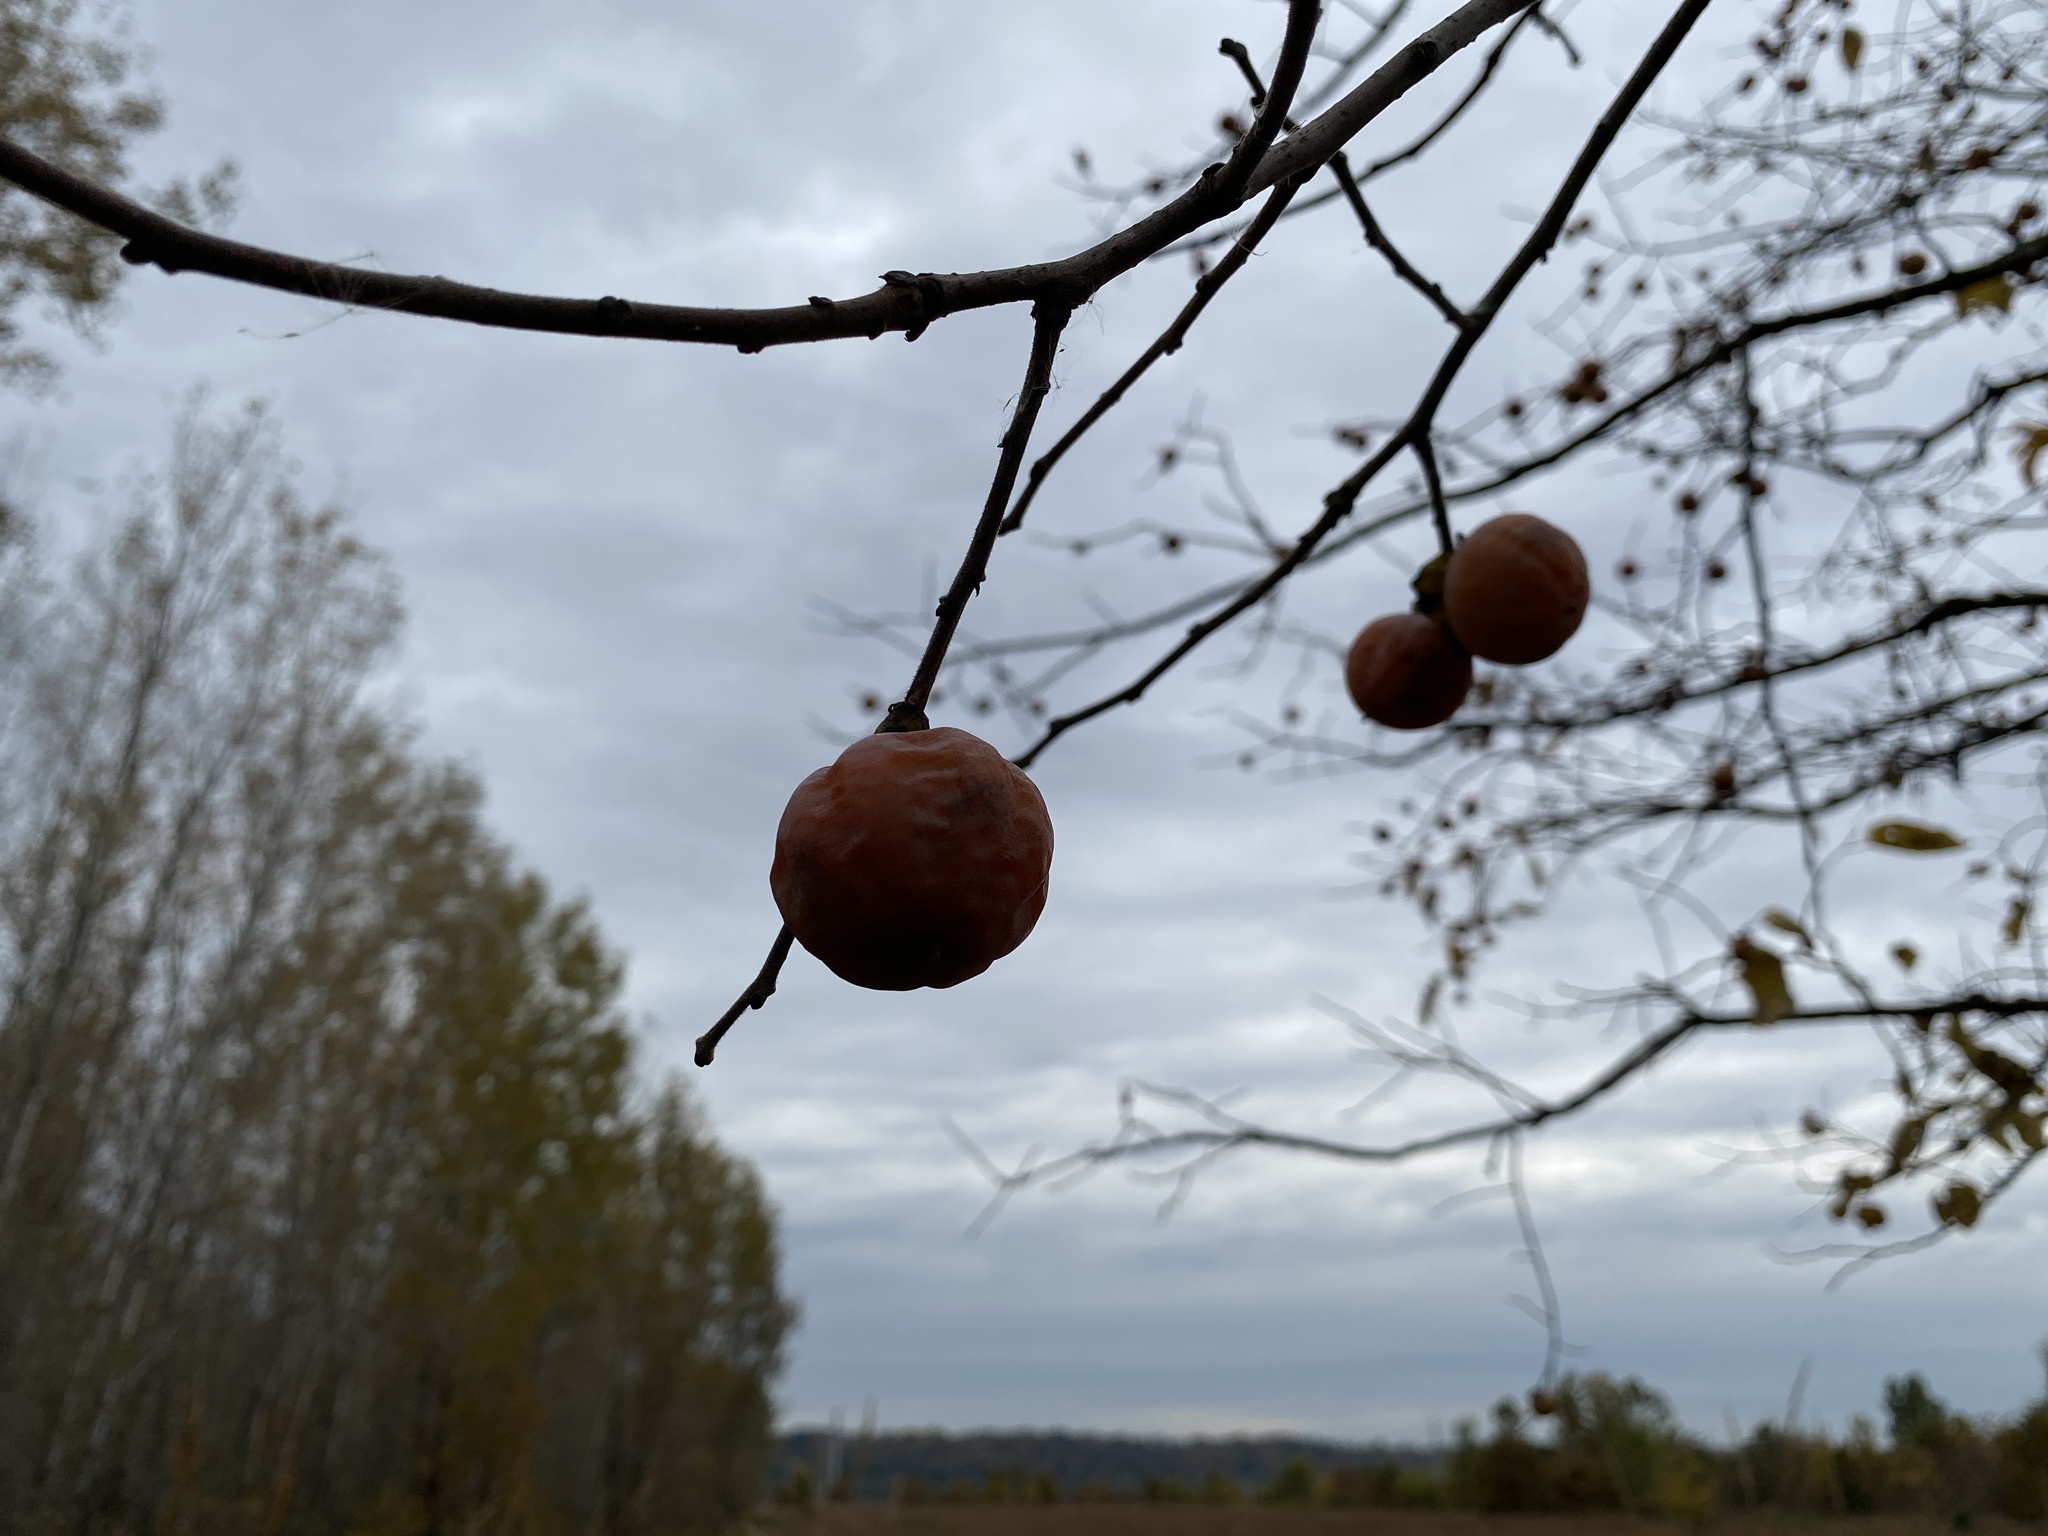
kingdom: Plantae
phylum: Tracheophyta
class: Magnoliopsida
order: Ericales
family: Ebenaceae
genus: Diospyros
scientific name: Diospyros virginiana
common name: Persimmon
